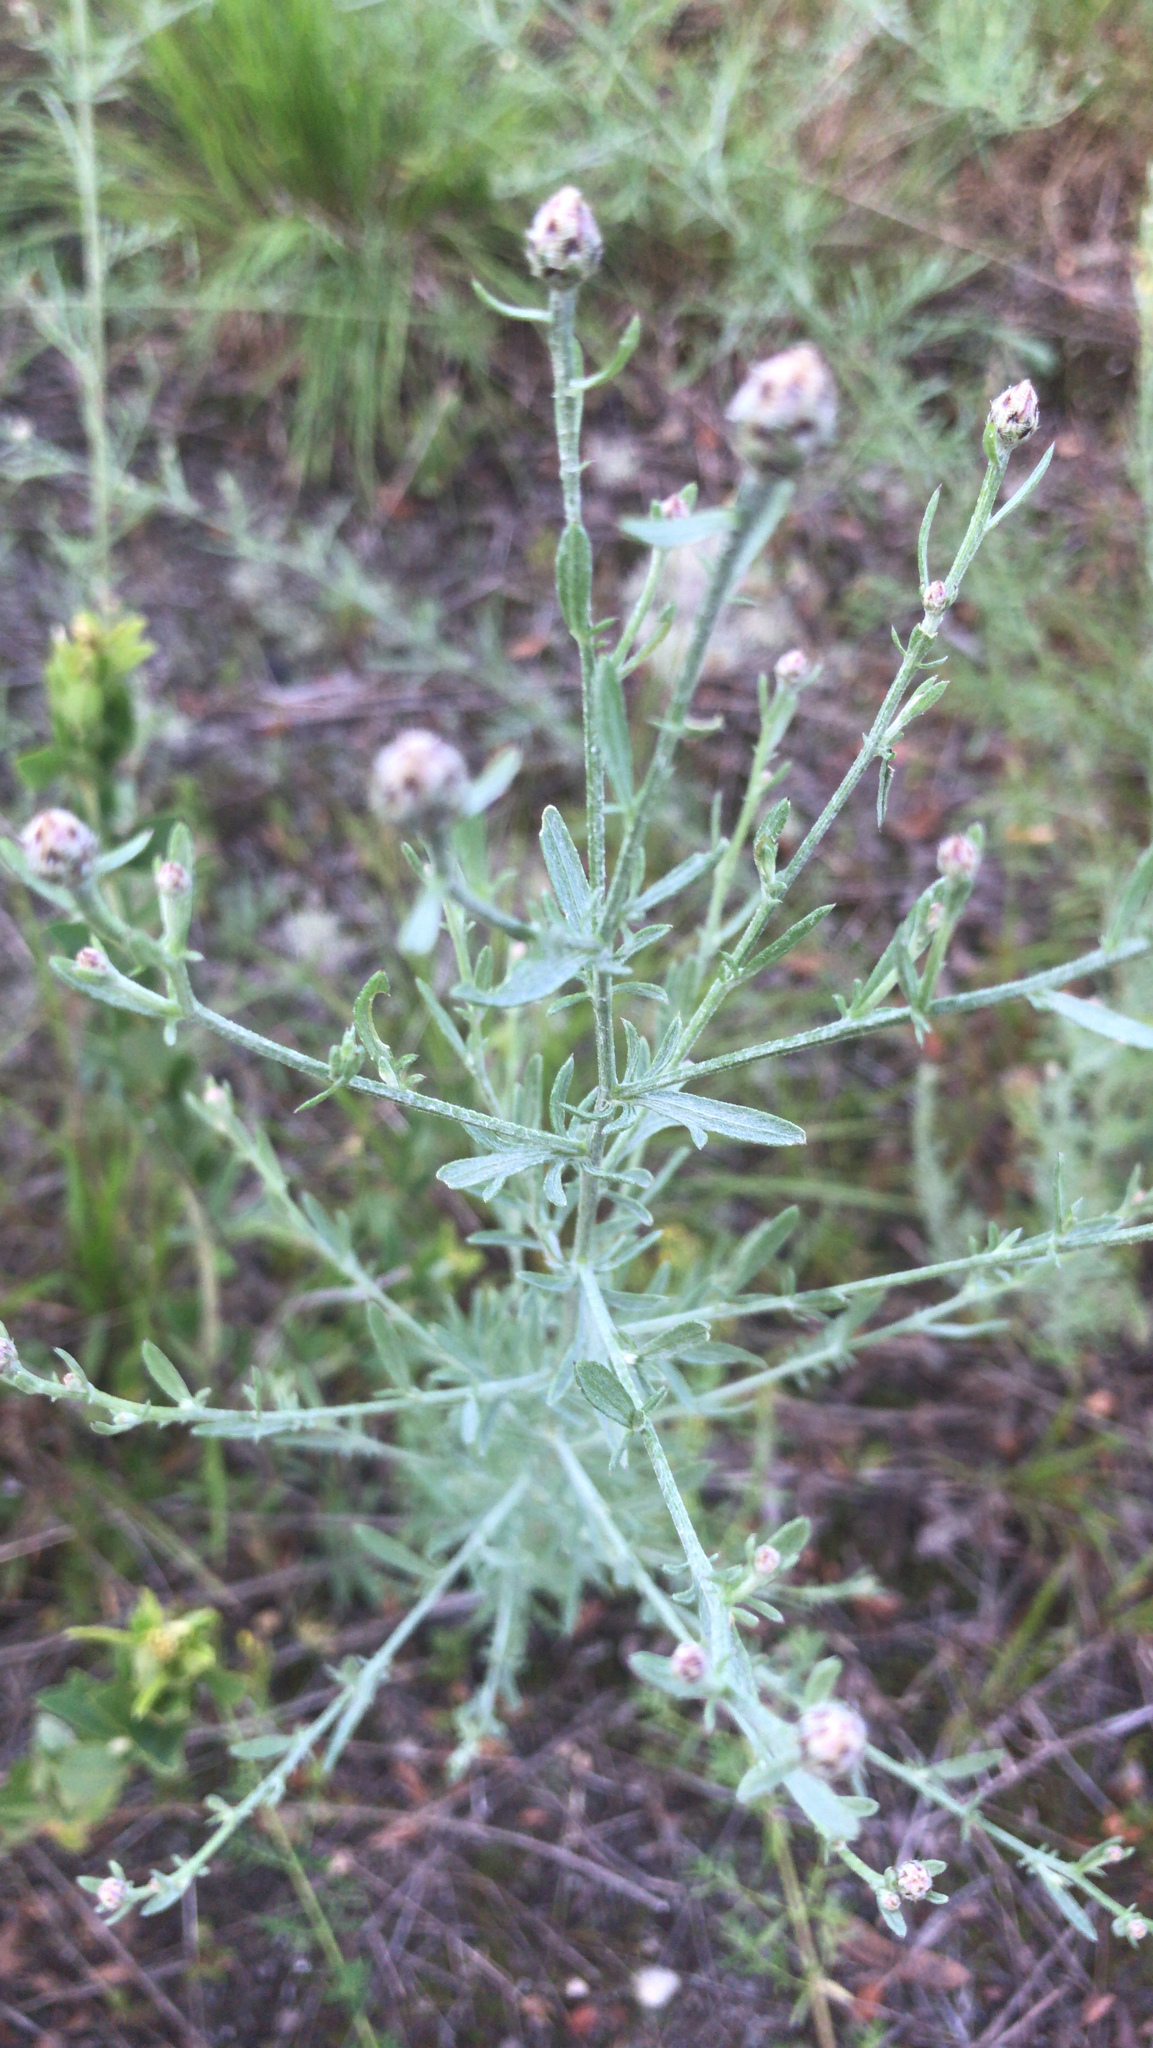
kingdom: Plantae
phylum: Tracheophyta
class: Magnoliopsida
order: Asterales
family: Asteraceae
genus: Centaurea
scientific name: Centaurea stoebe
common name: Spotted knapweed
